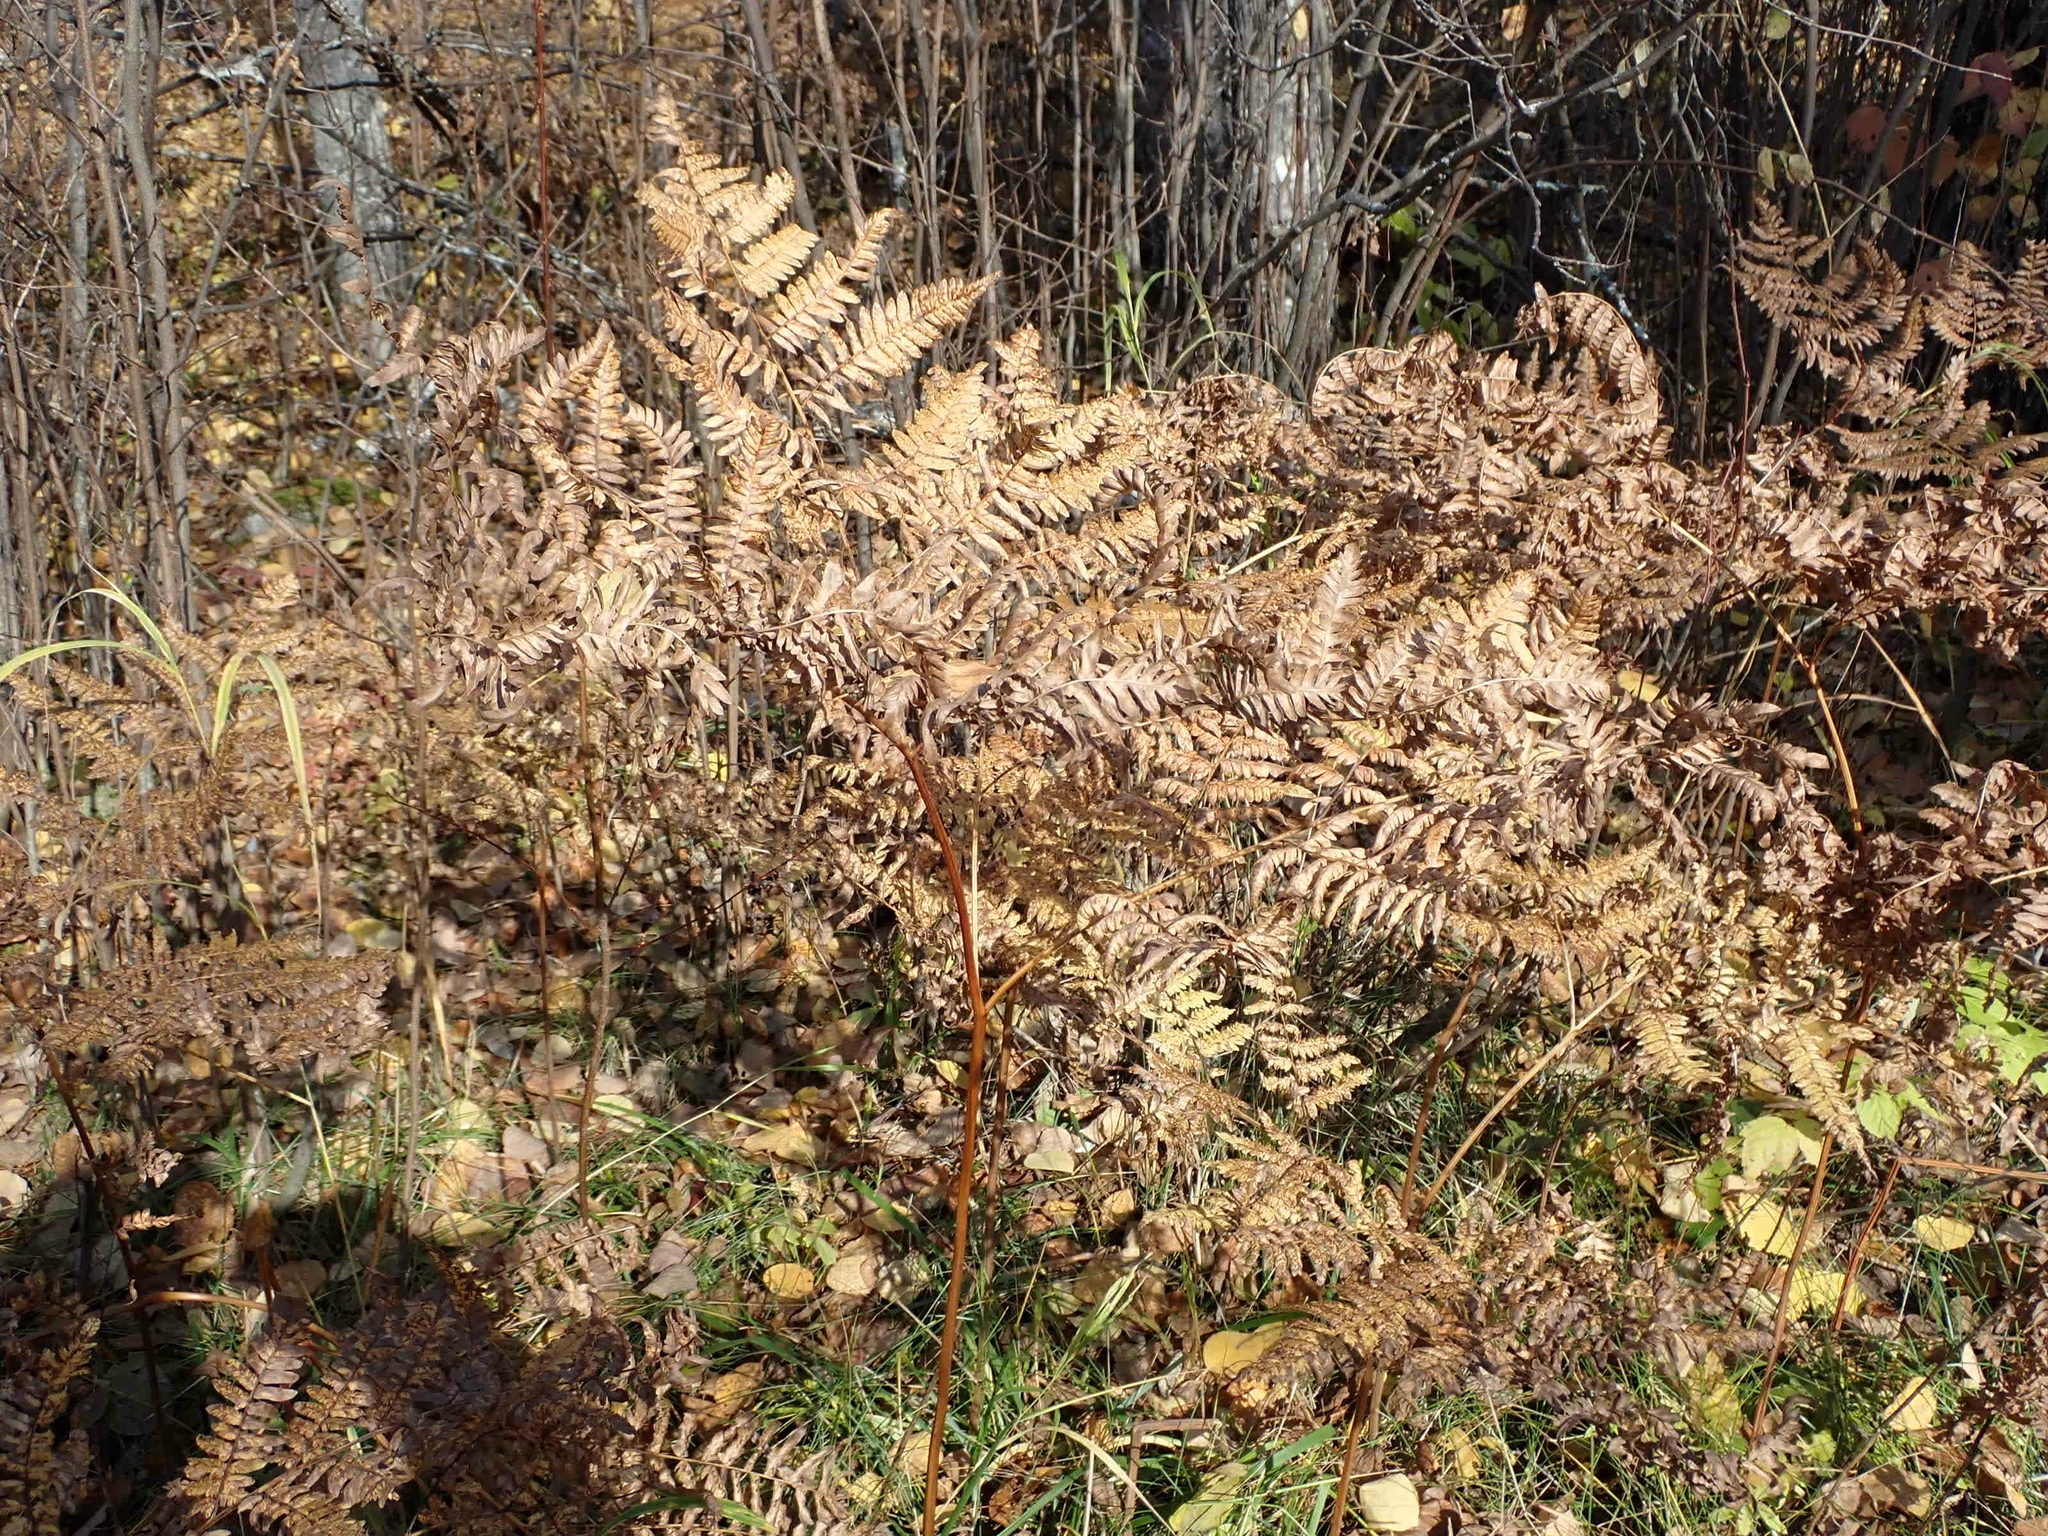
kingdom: Plantae
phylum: Tracheophyta
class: Polypodiopsida
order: Polypodiales
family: Dennstaedtiaceae
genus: Pteridium
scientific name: Pteridium aquilinum
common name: Bracken
